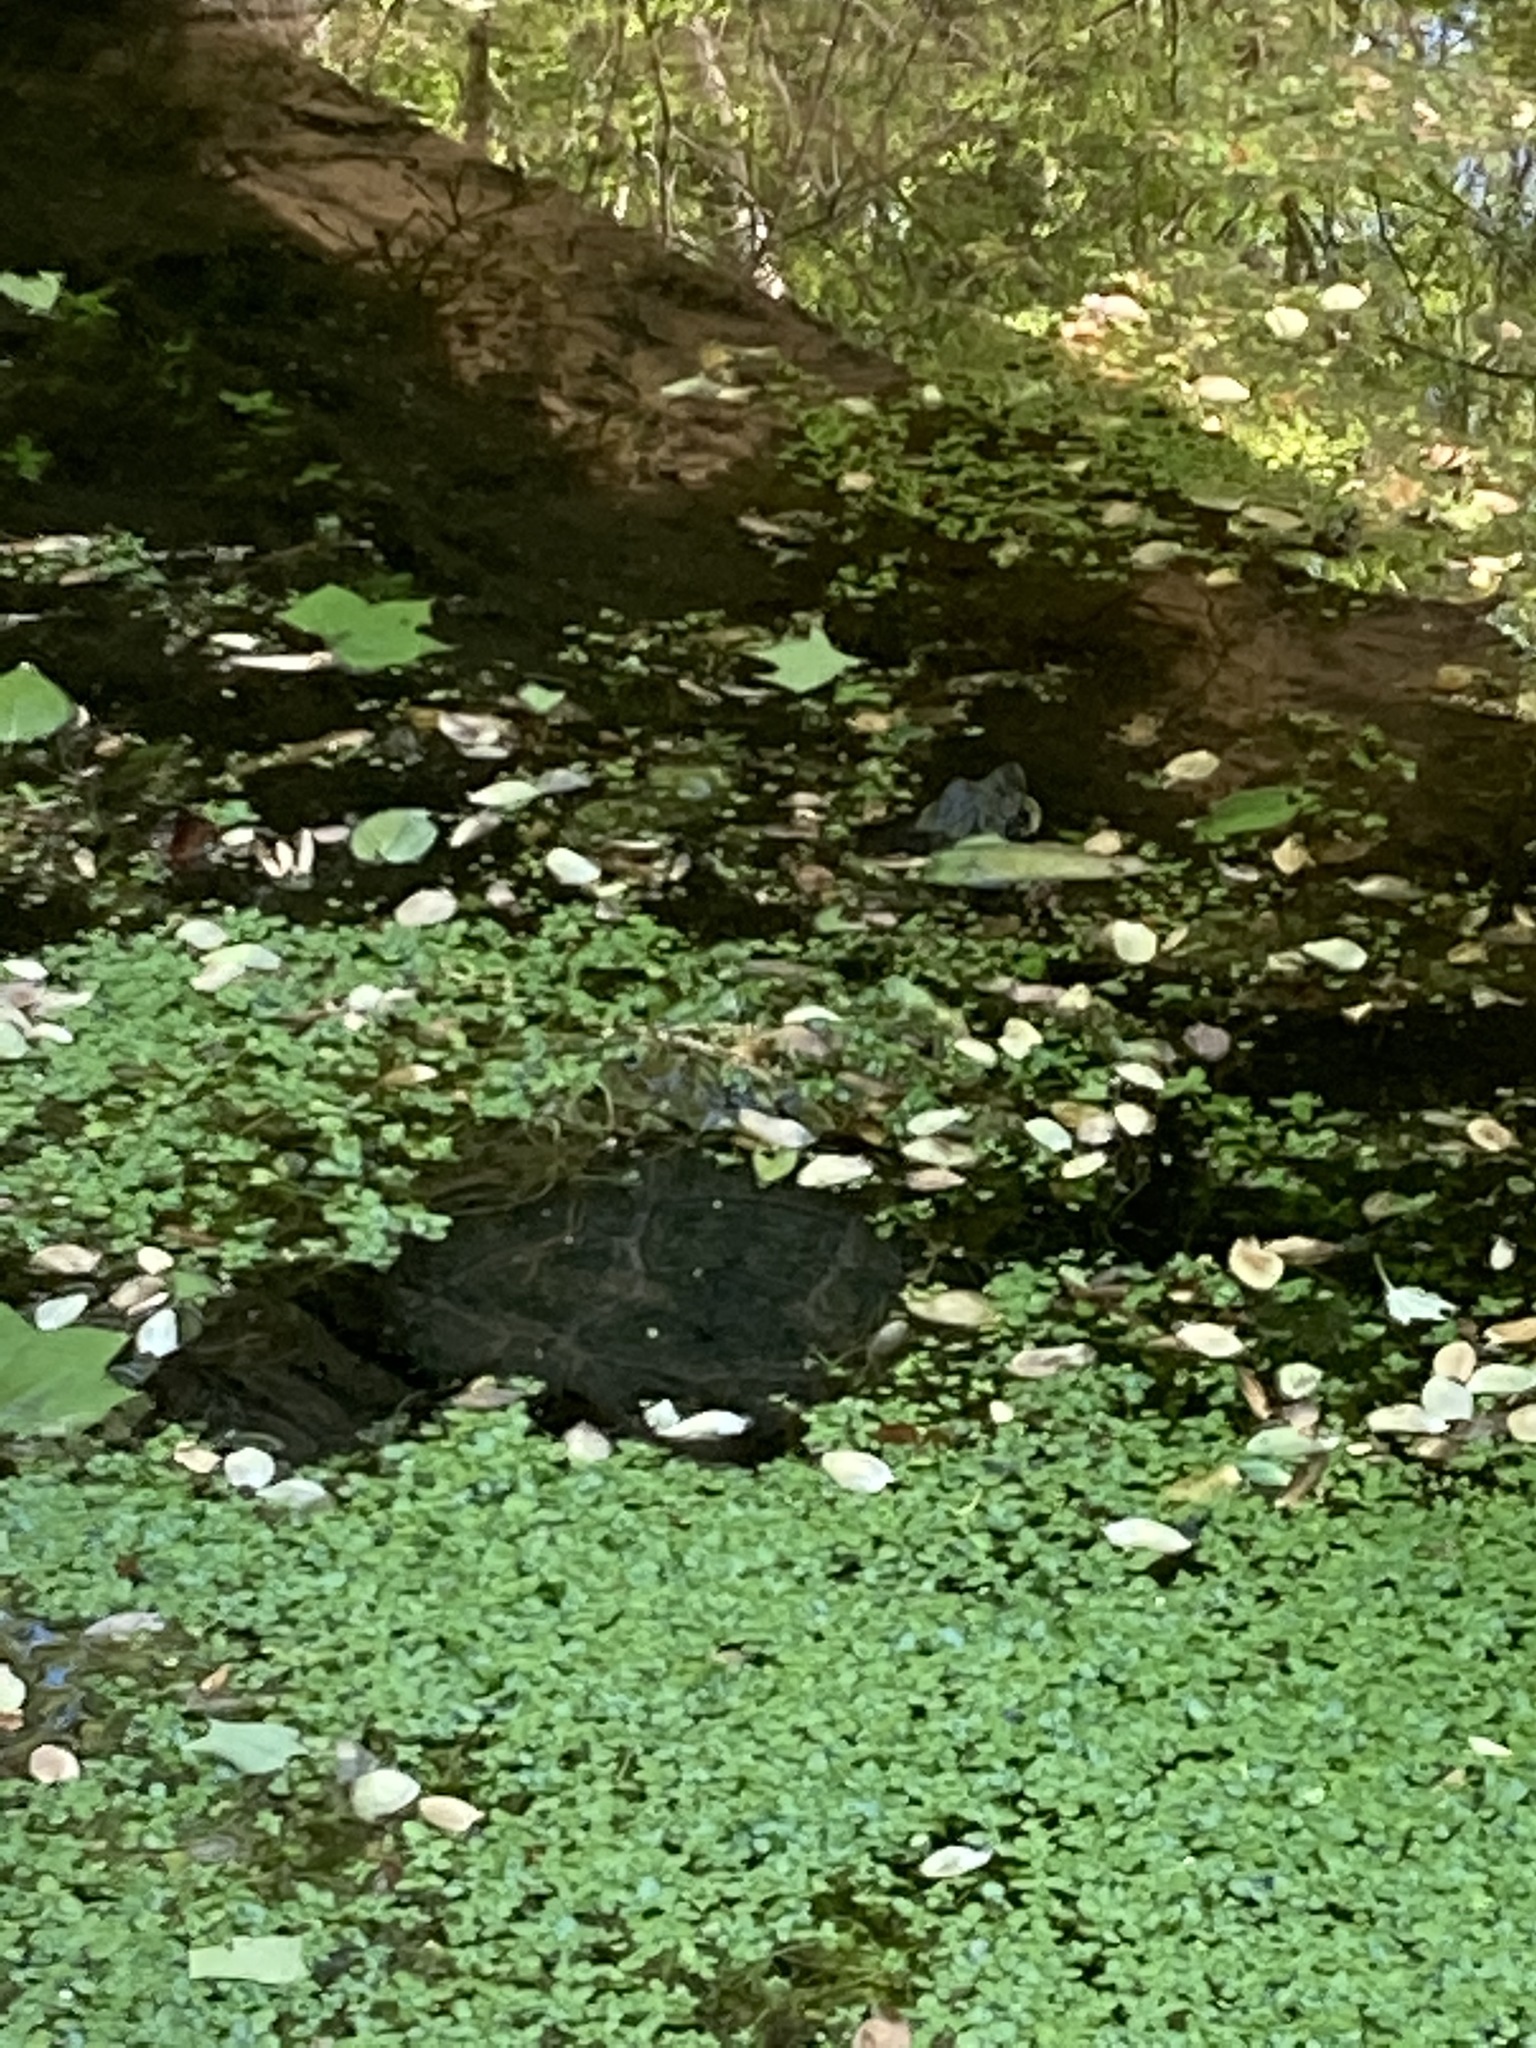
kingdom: Animalia
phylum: Chordata
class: Testudines
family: Chelydridae
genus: Chelydra
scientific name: Chelydra serpentina
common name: Common snapping turtle
